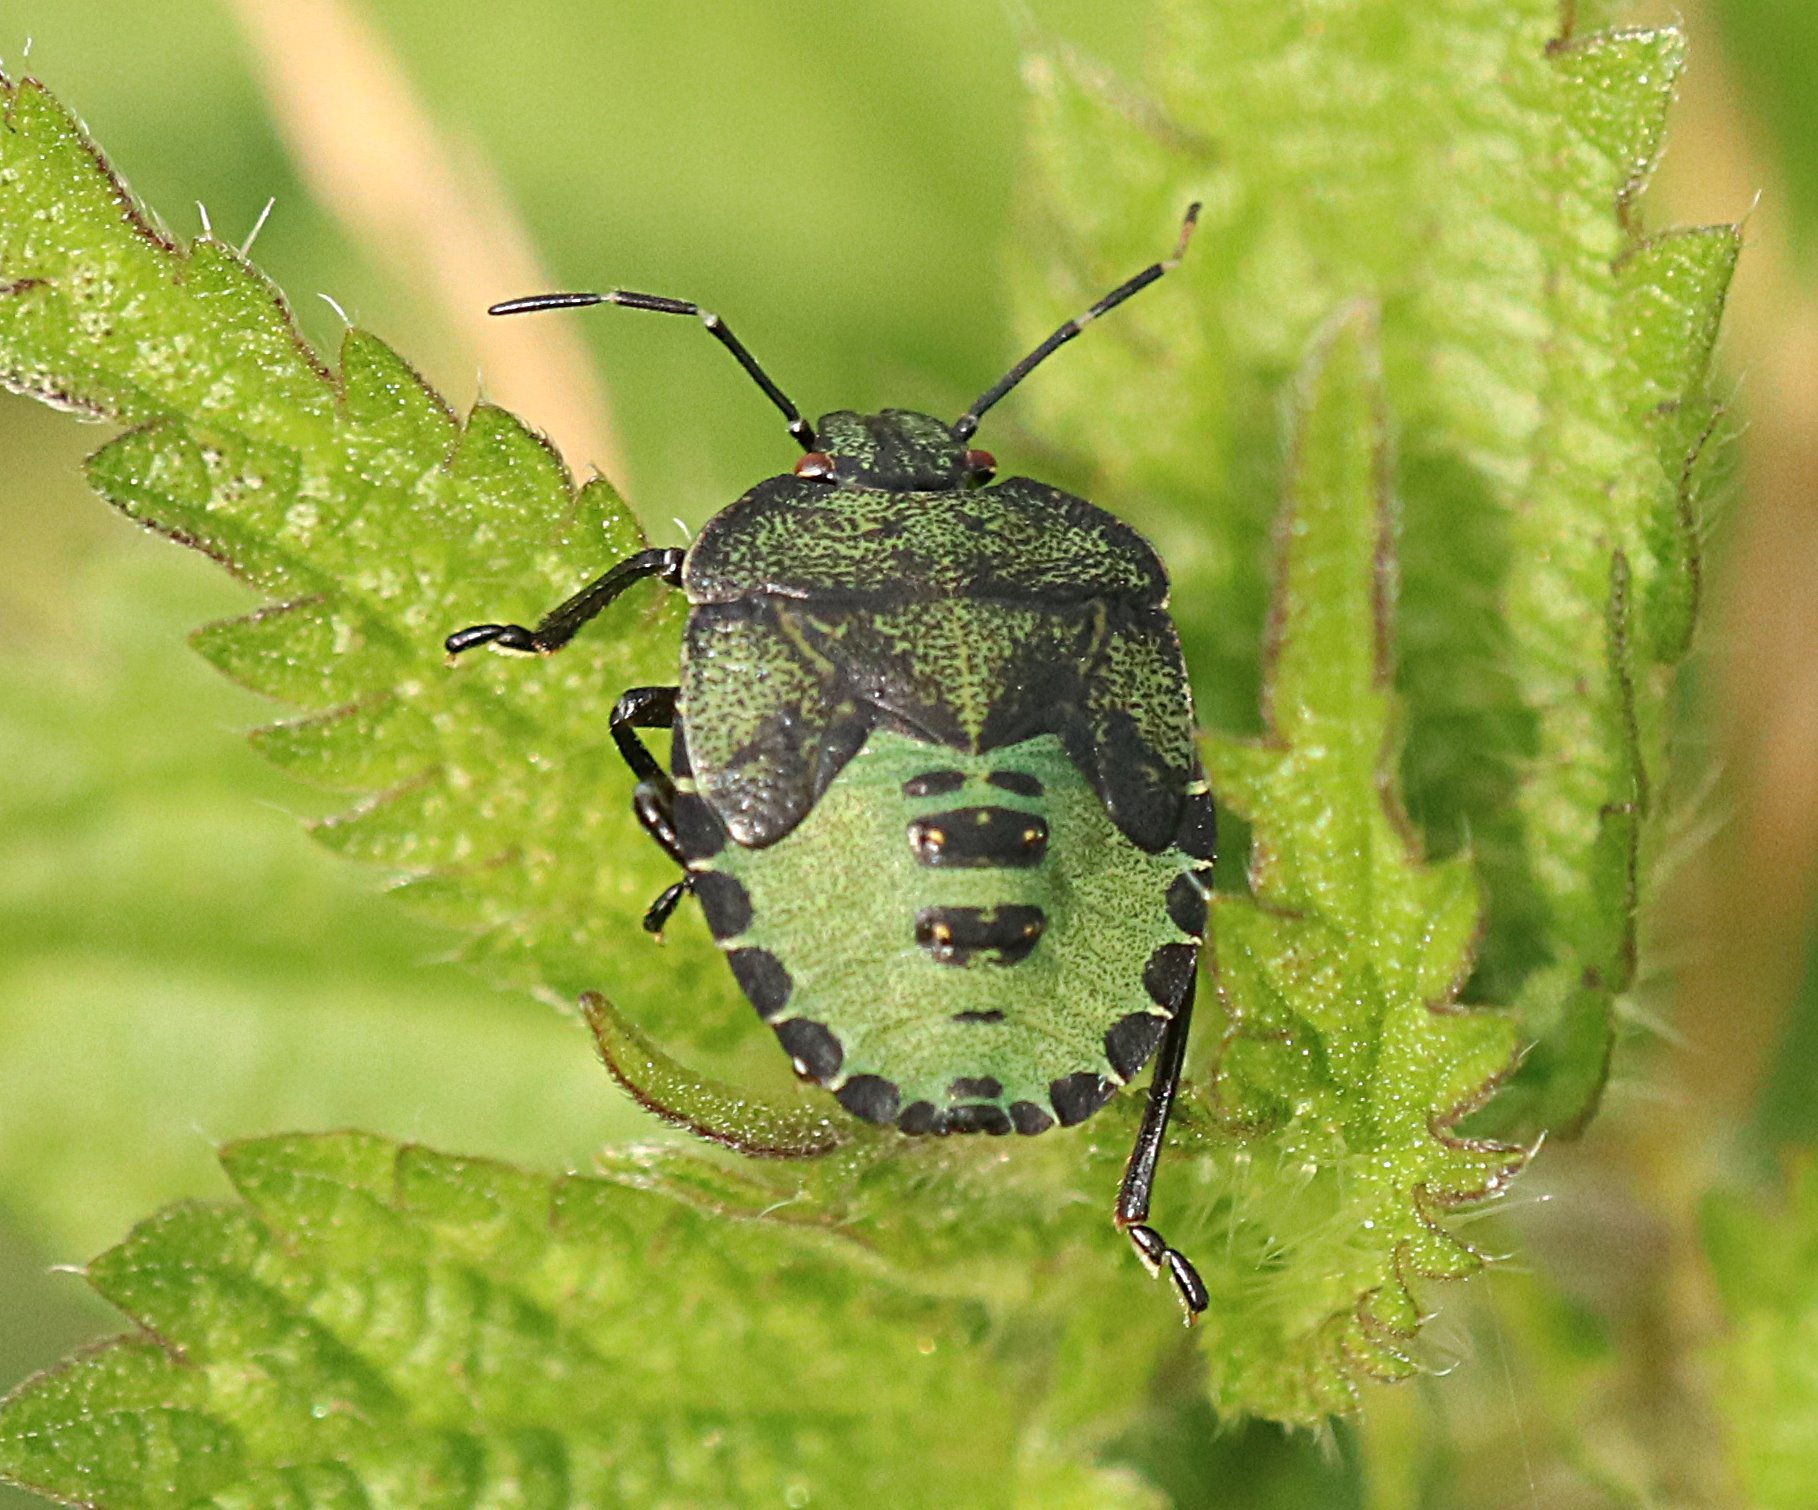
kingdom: Animalia
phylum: Arthropoda
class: Insecta
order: Hemiptera
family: Pentatomidae
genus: Palomena
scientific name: Palomena prasina
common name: Green shieldbug
